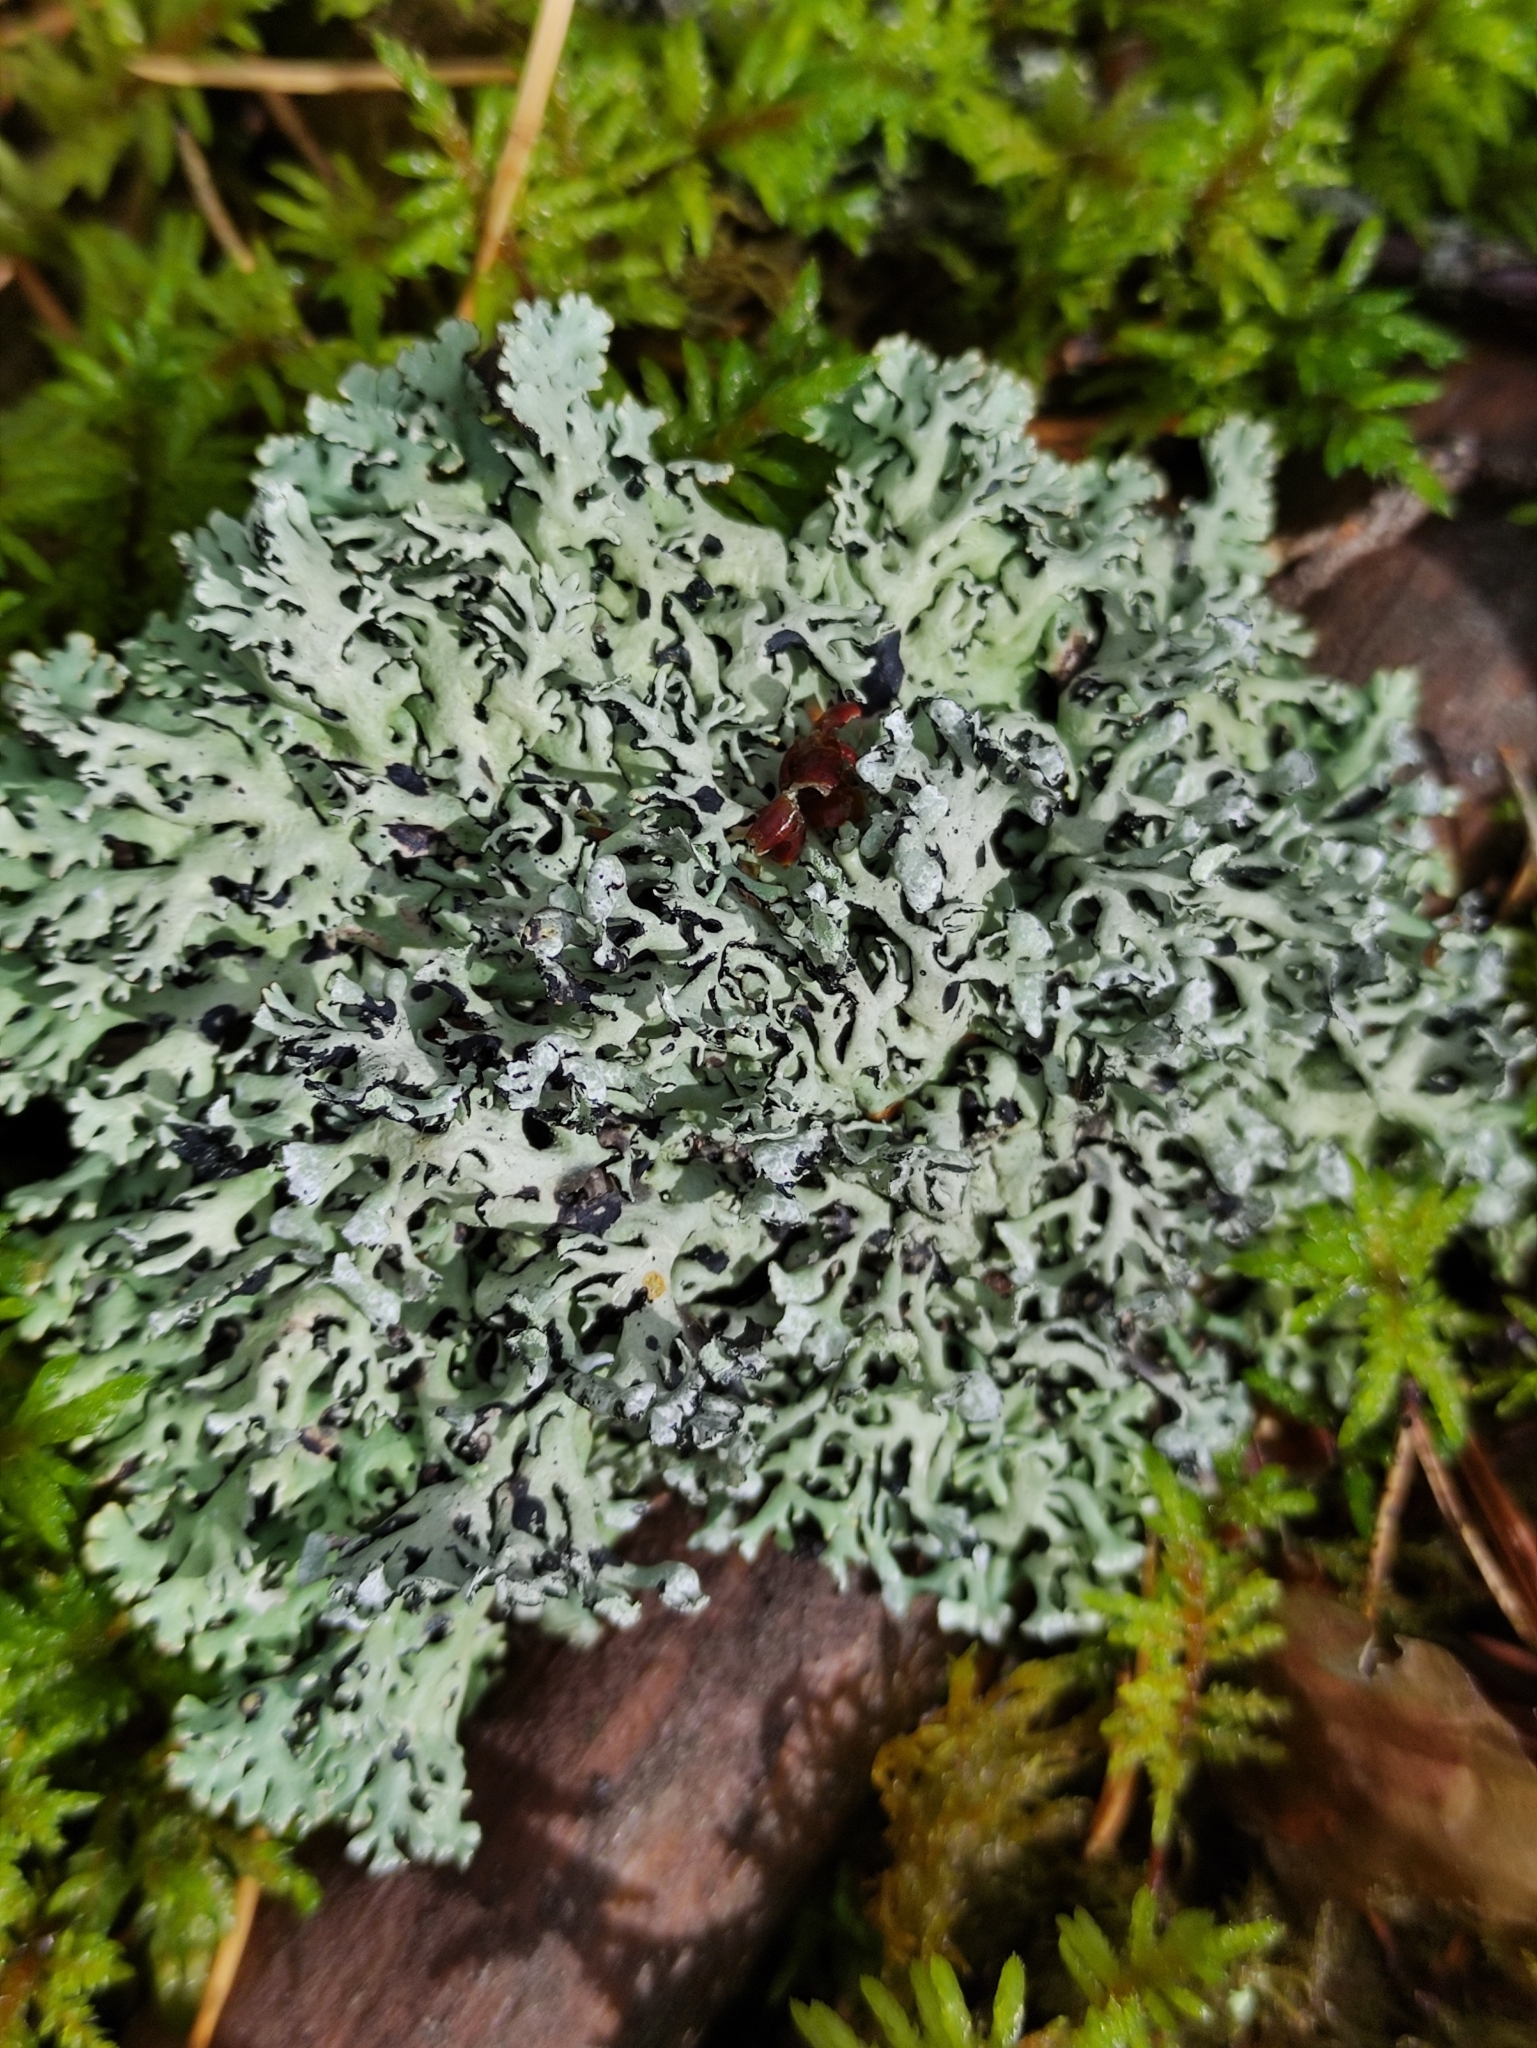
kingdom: Fungi
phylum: Ascomycota
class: Lecanoromycetes
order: Lecanorales
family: Parmeliaceae
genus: Hypogymnia
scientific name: Hypogymnia physodes
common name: Dark crottle
